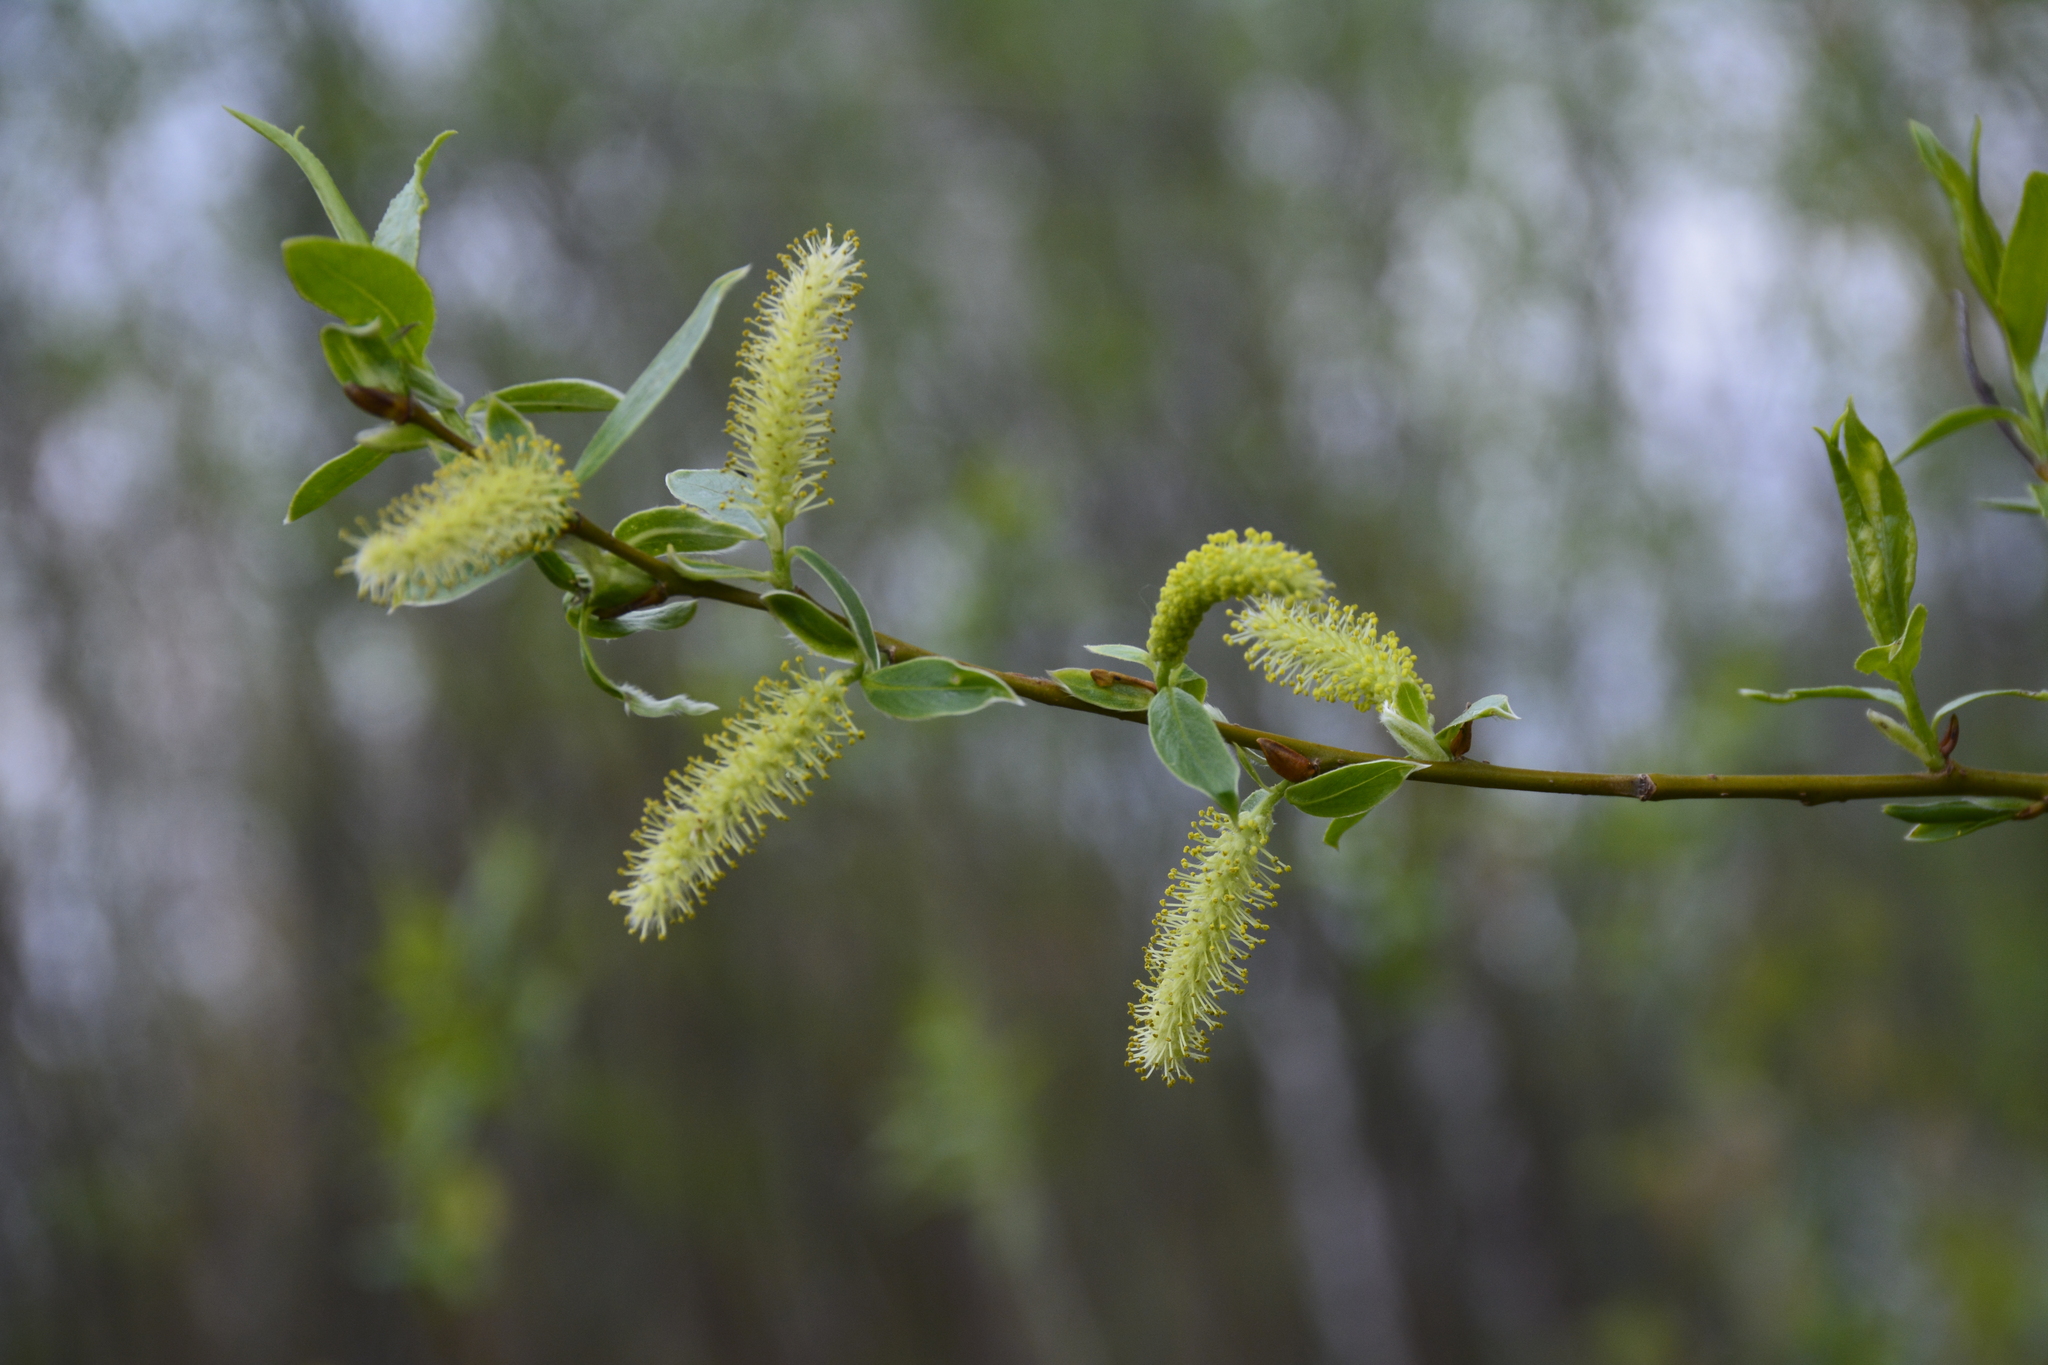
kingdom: Plantae
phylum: Tracheophyta
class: Magnoliopsida
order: Malpighiales
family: Salicaceae
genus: Salix
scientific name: Salix triandra
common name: Almond willow
